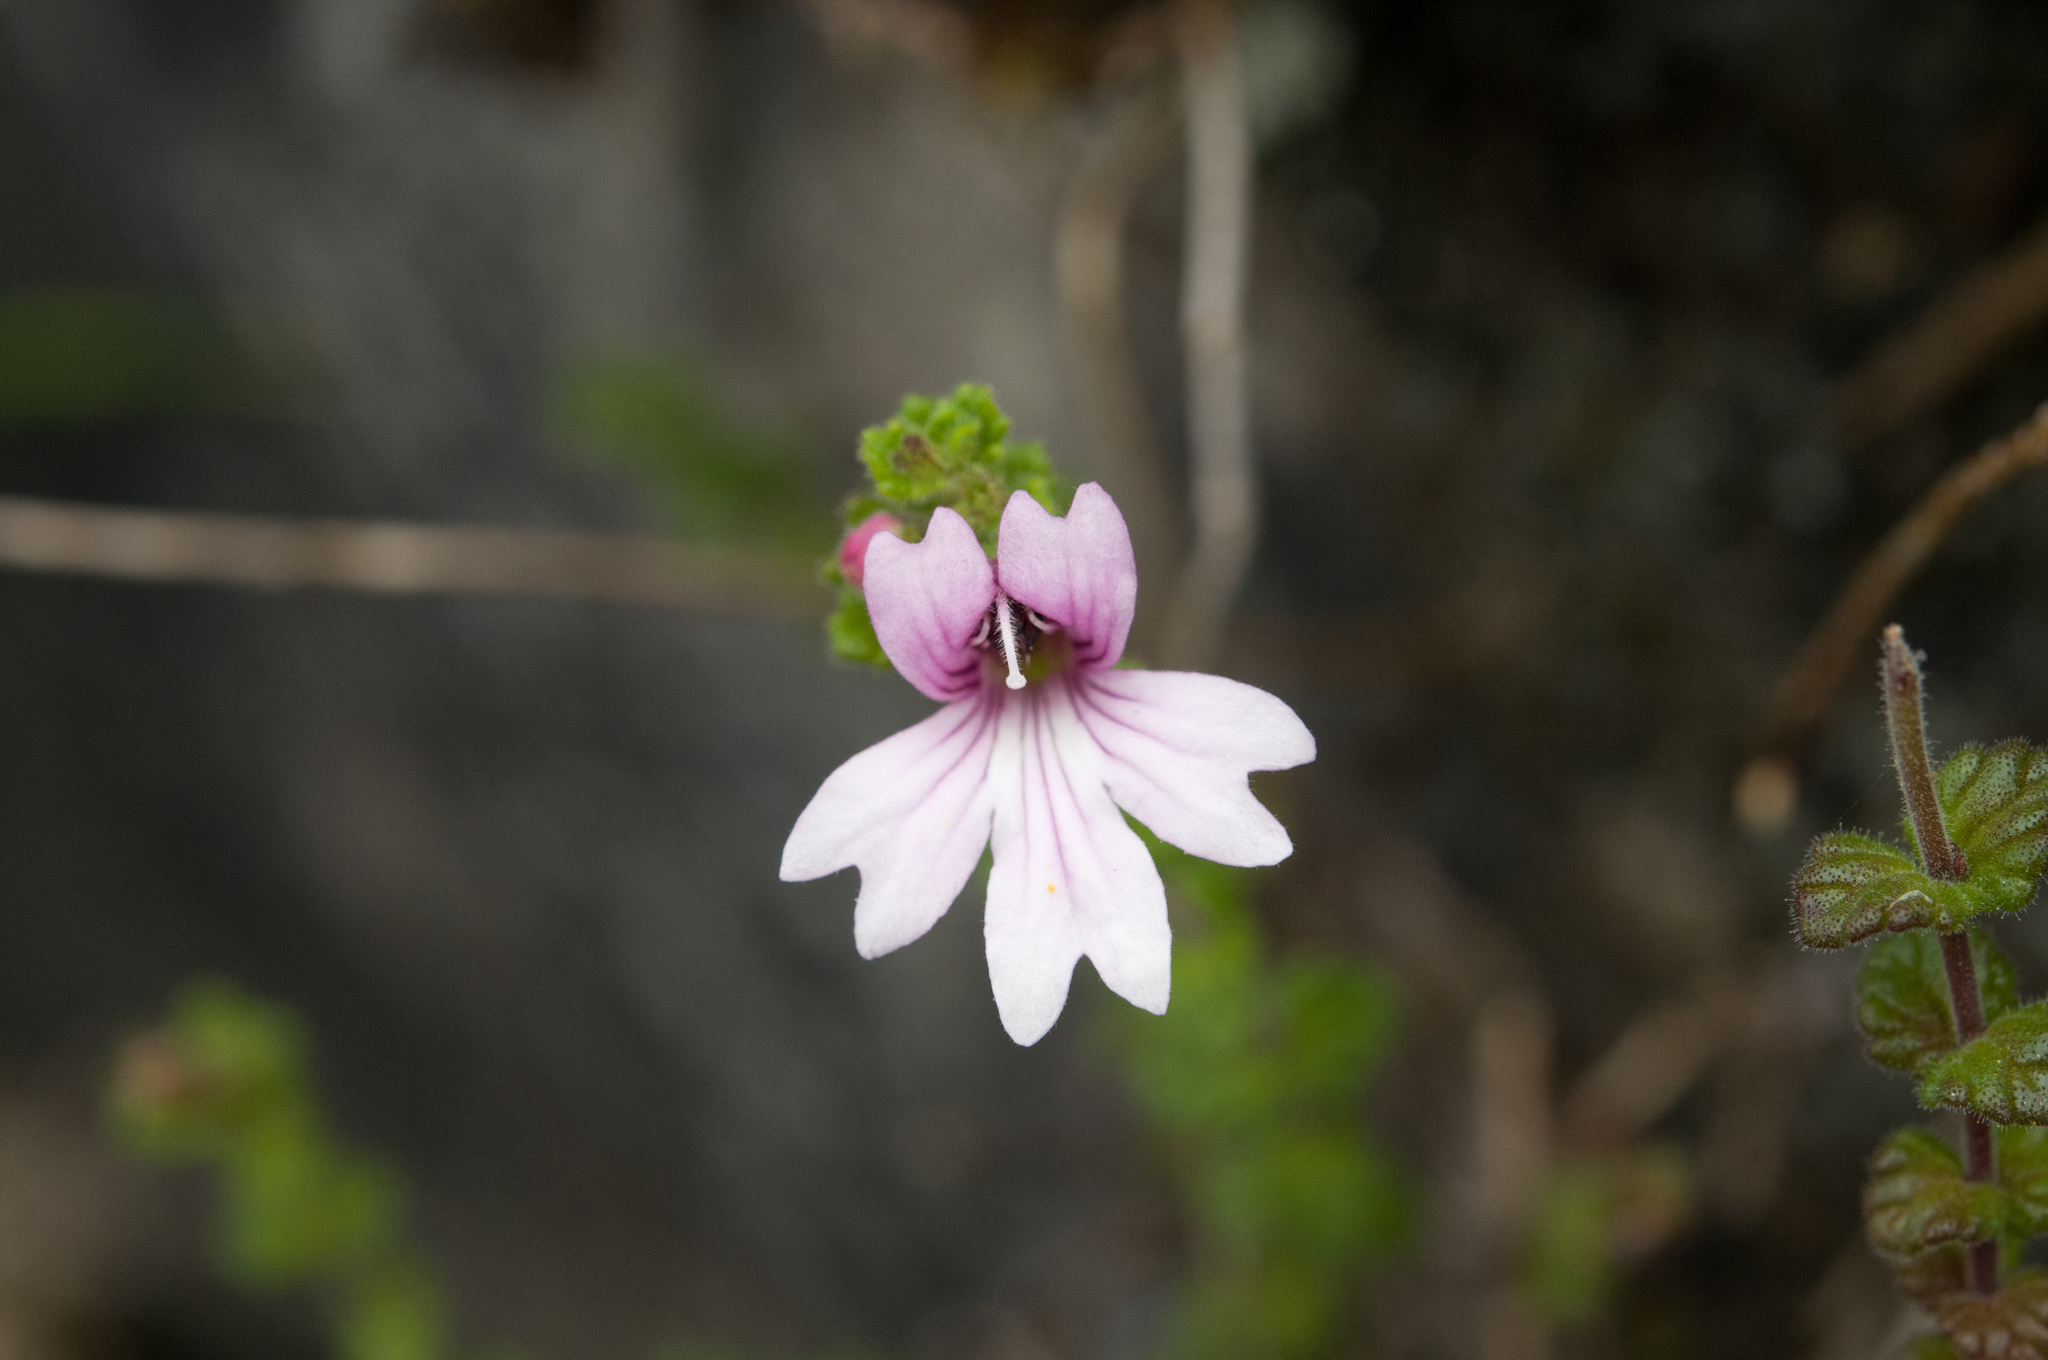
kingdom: Plantae
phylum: Tracheophyta
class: Magnoliopsida
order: Lamiales
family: Orobanchaceae
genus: Euphrasia
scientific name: Euphrasia tarokoana
